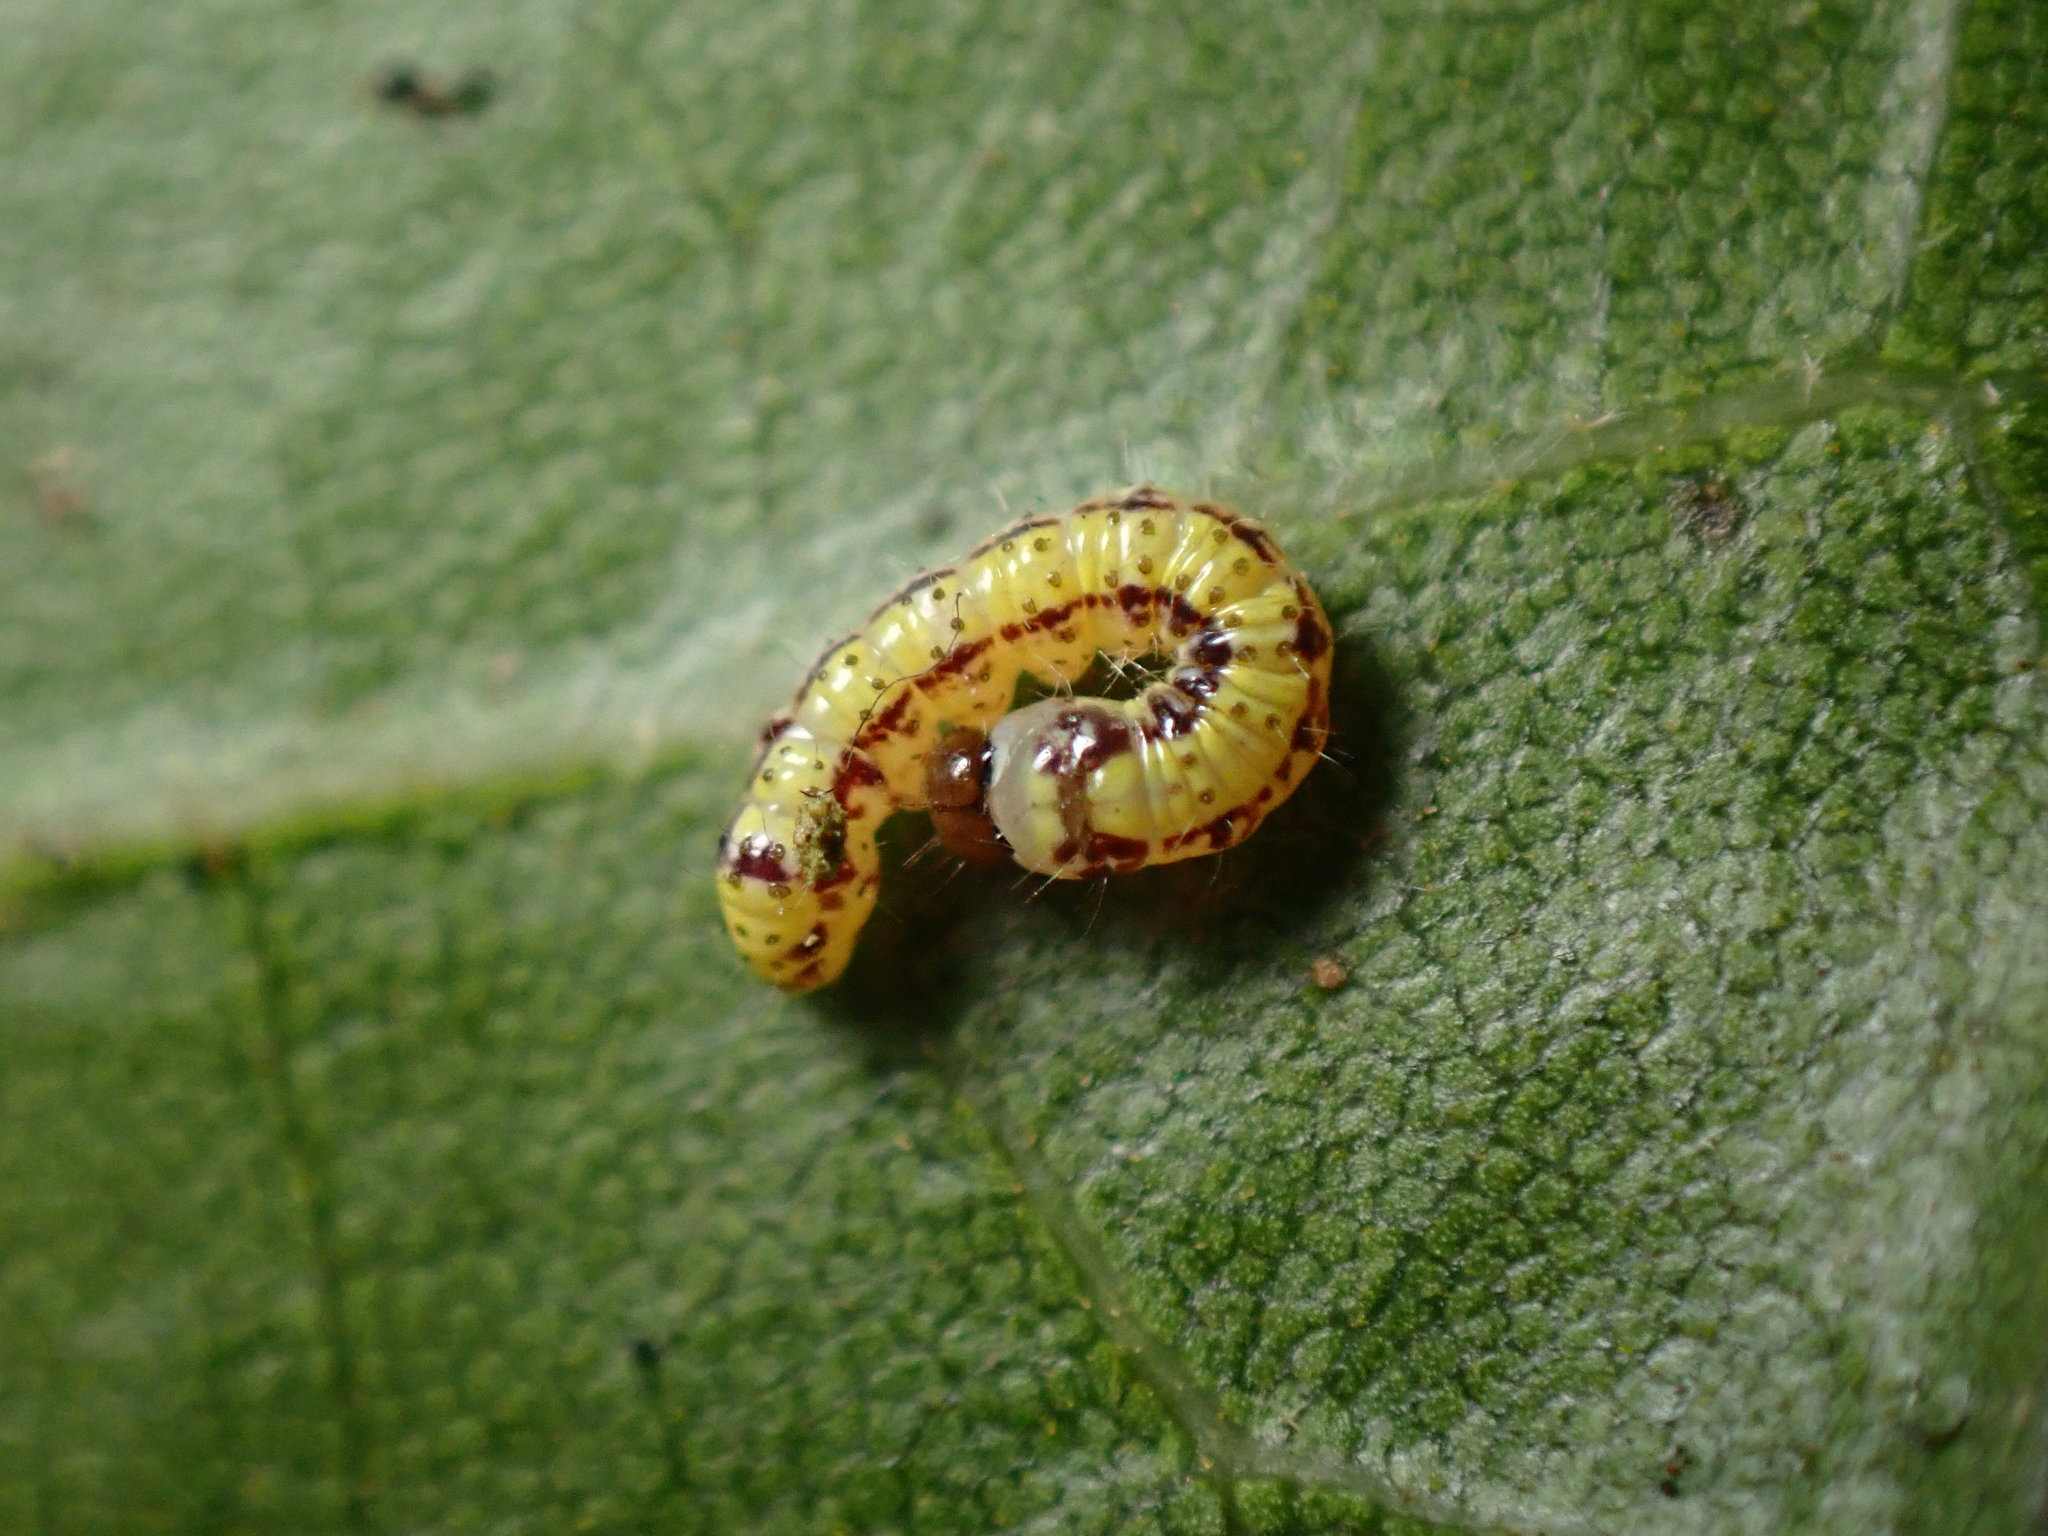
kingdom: Animalia
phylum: Arthropoda
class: Insecta
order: Lepidoptera
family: Notodontidae
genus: Phryganidia
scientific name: Phryganidia californica
